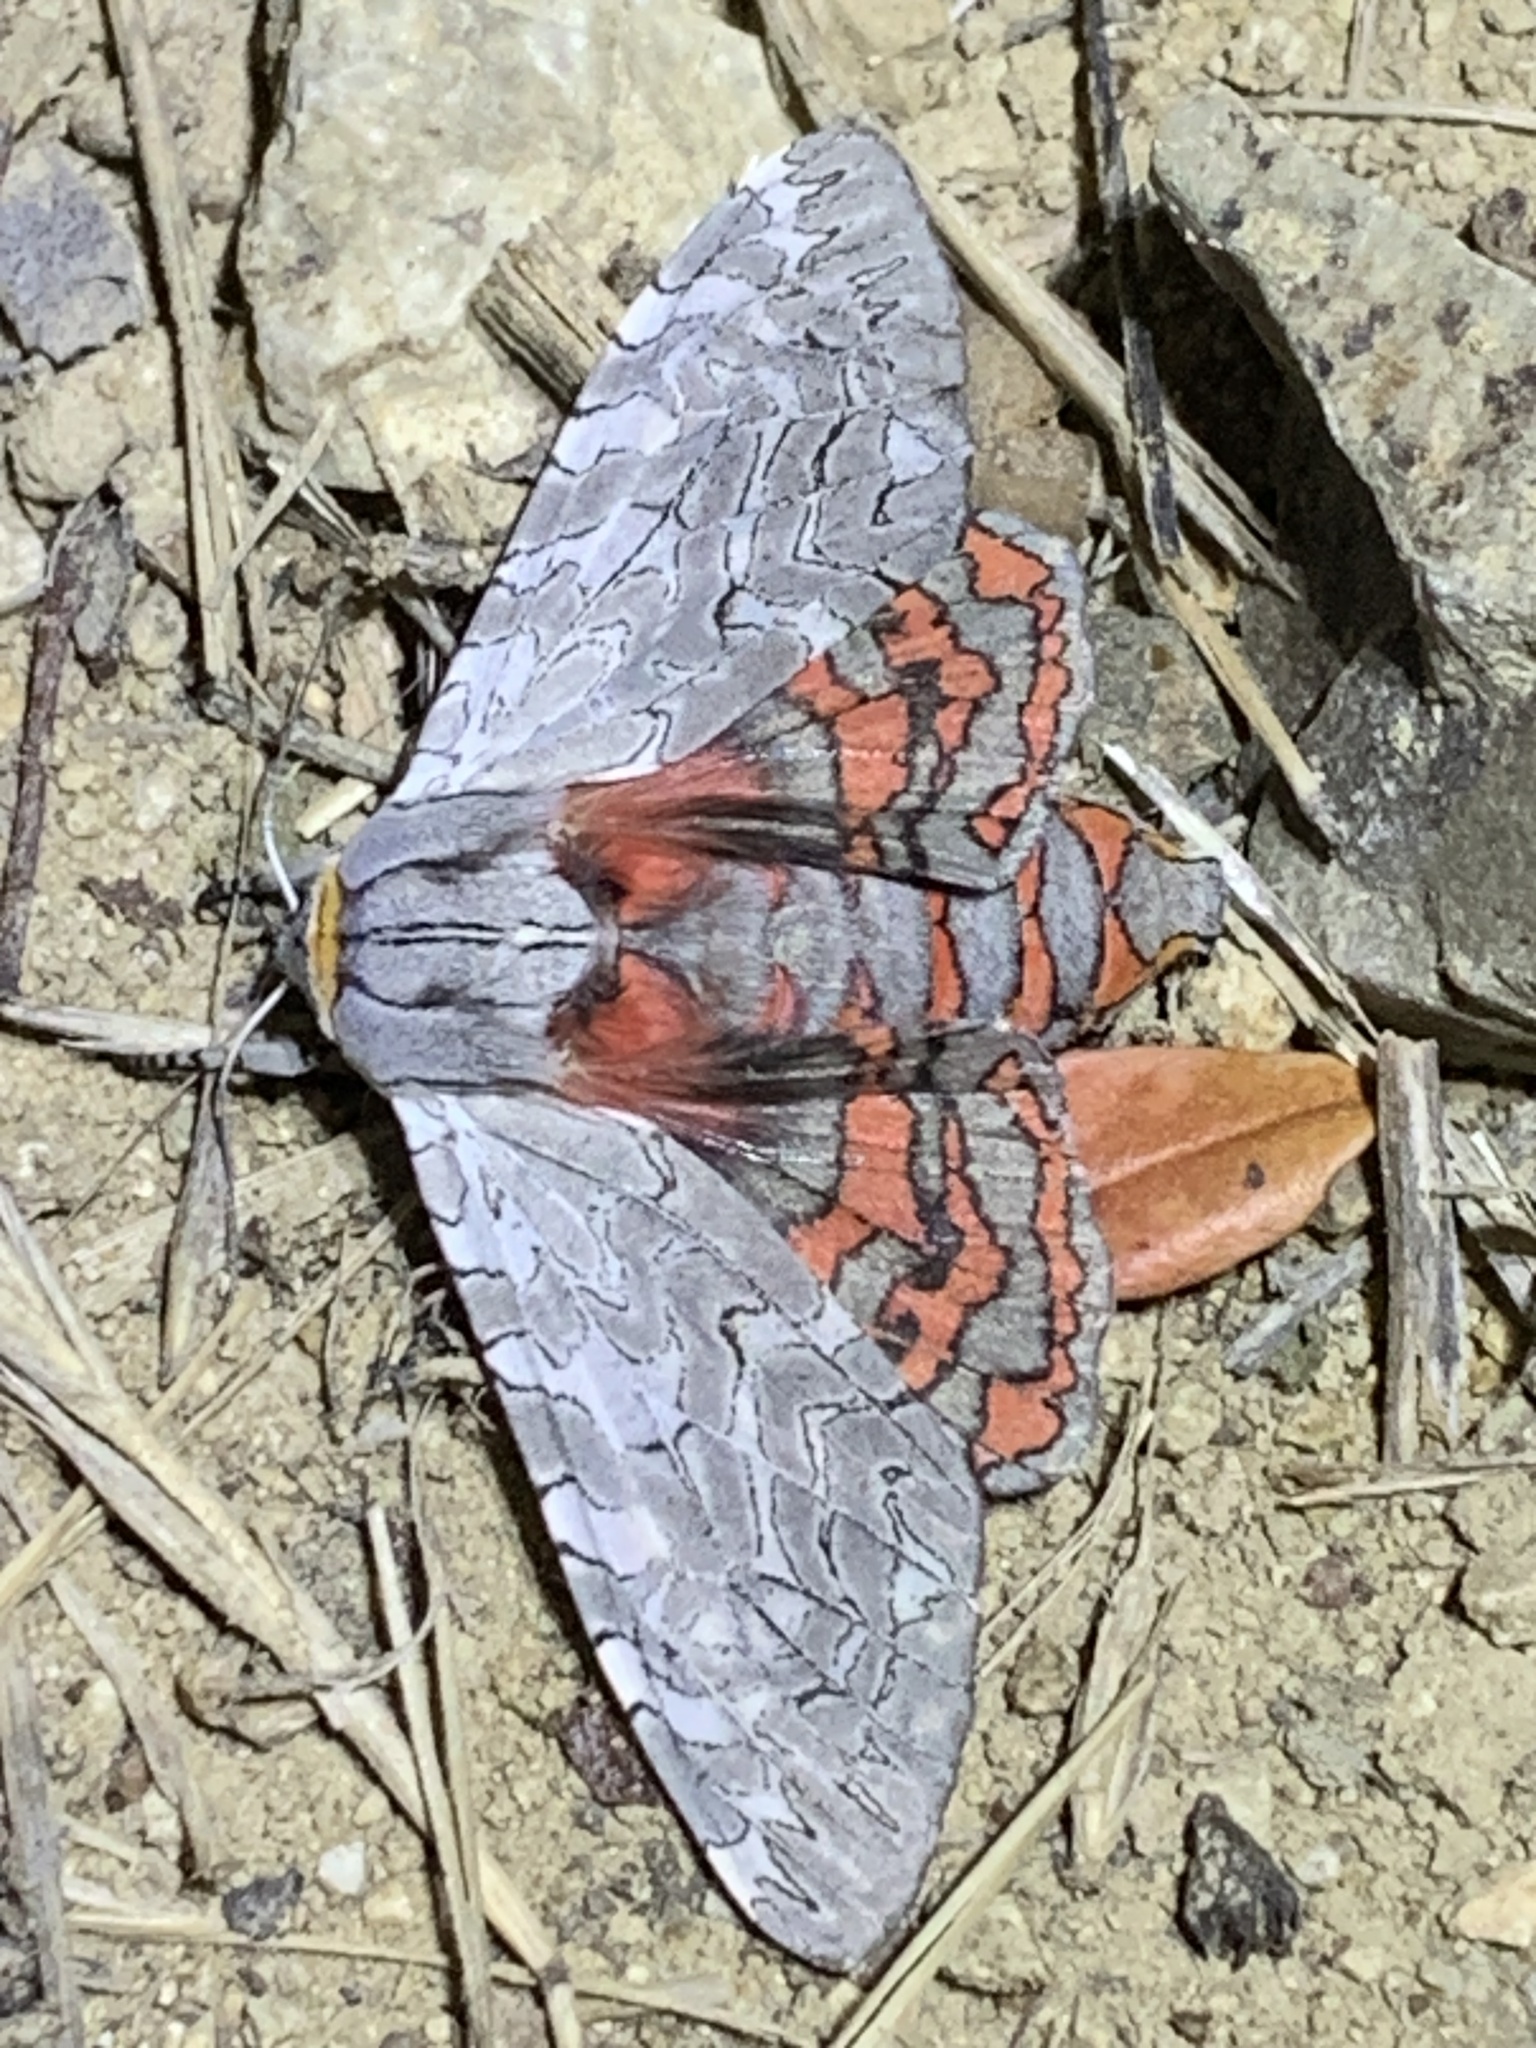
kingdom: Animalia
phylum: Arthropoda
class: Insecta
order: Lepidoptera
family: Erebidae
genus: Arachnis
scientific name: Arachnis picta
